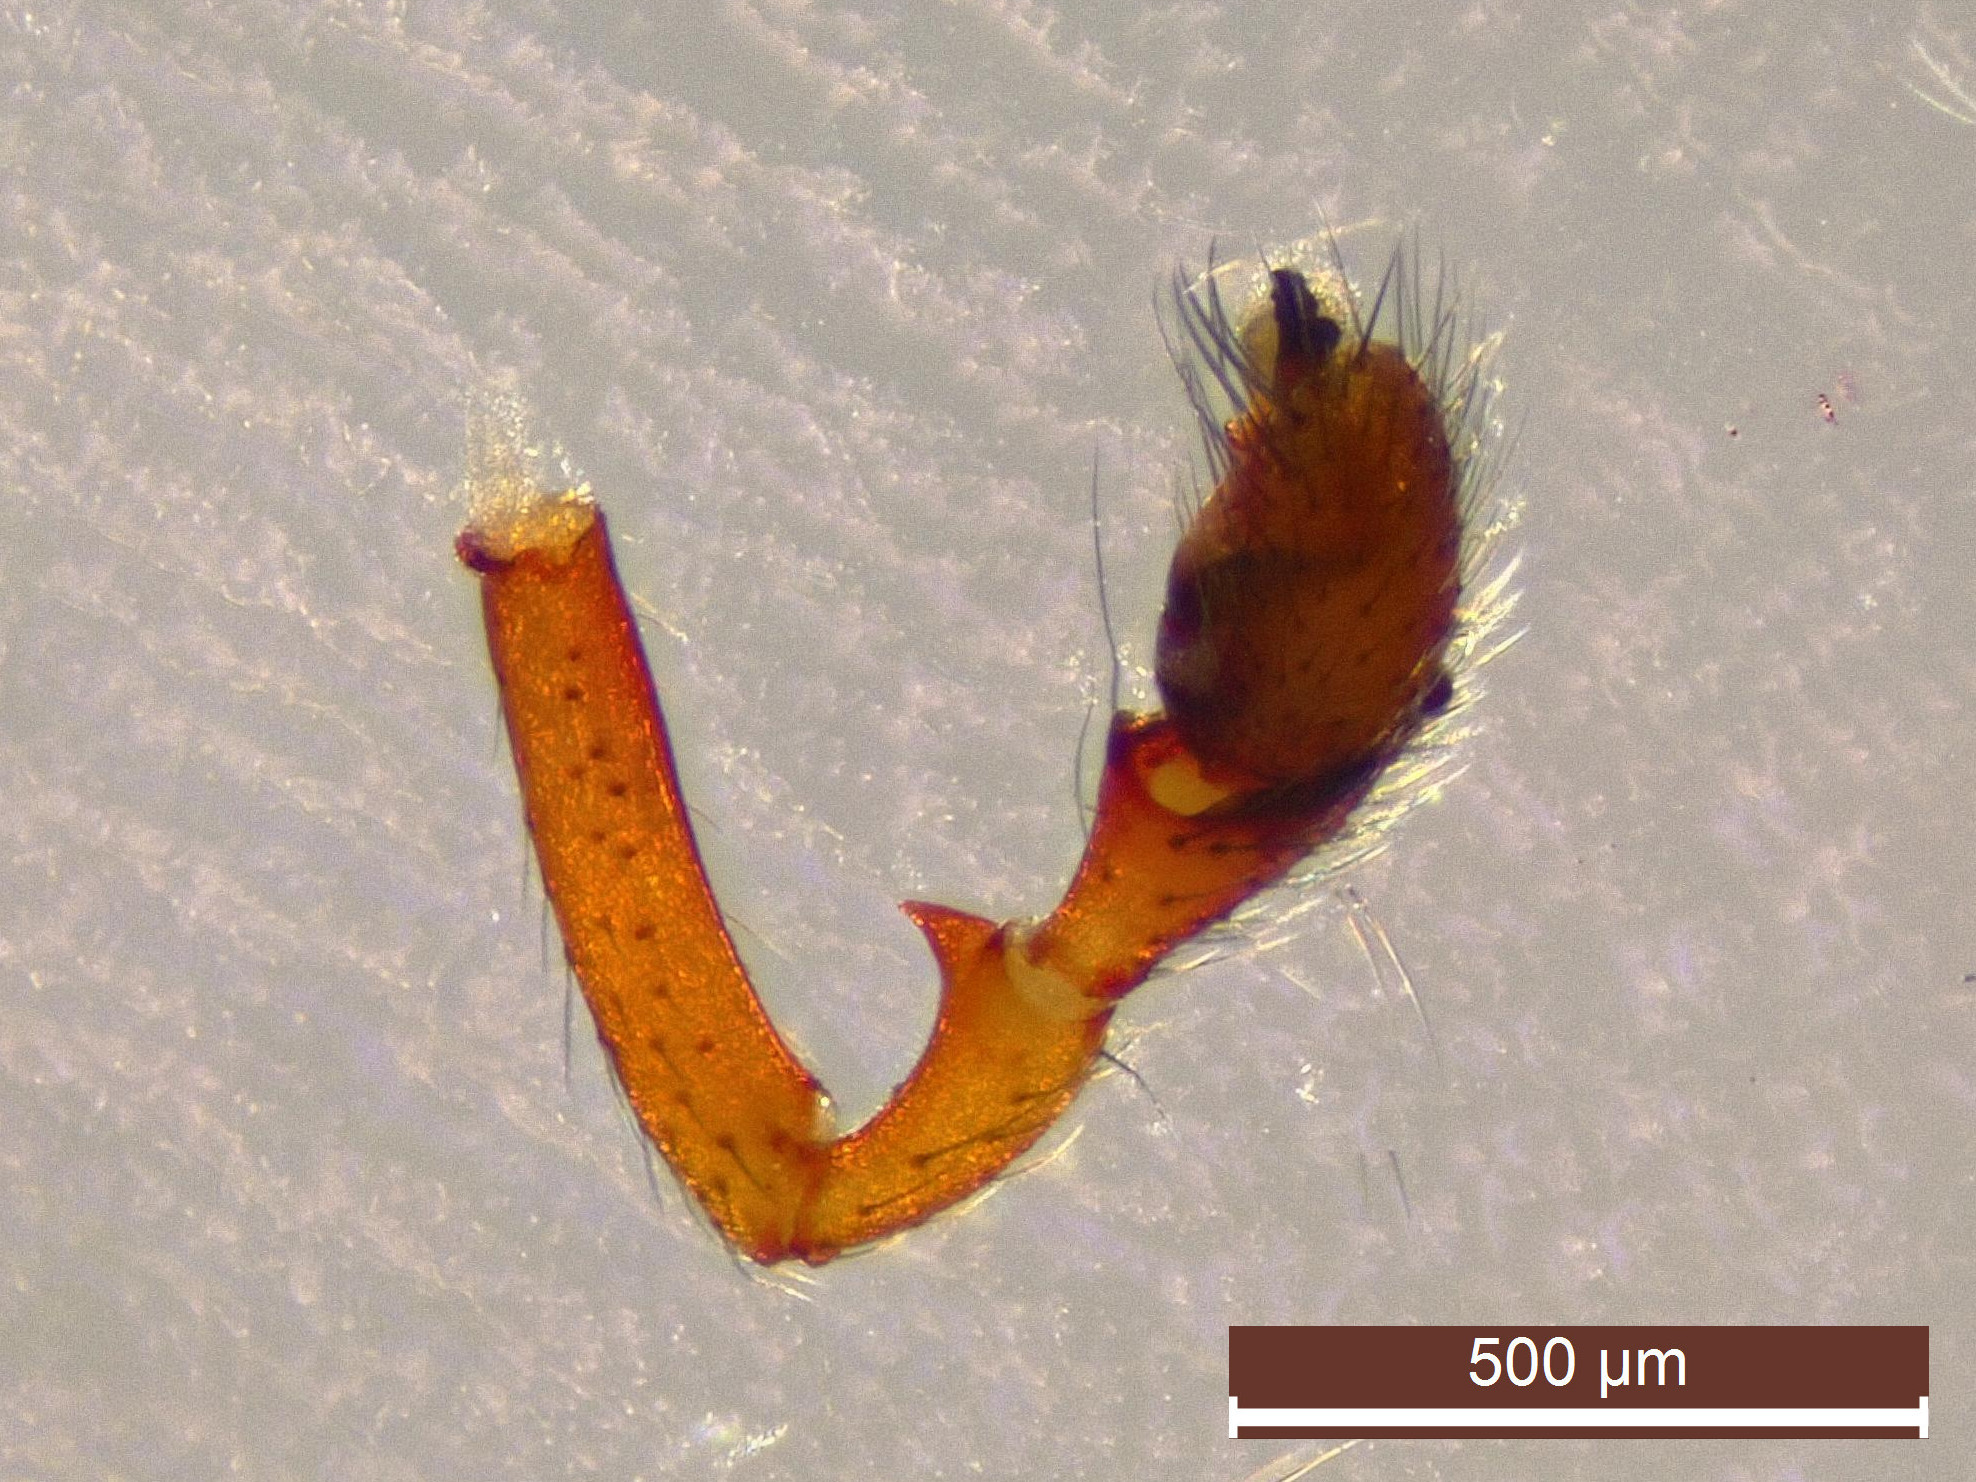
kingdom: Animalia
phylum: Arthropoda
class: Arachnida
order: Araneae
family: Linyphiidae
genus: Hylyphantes
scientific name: Hylyphantes graminicola
